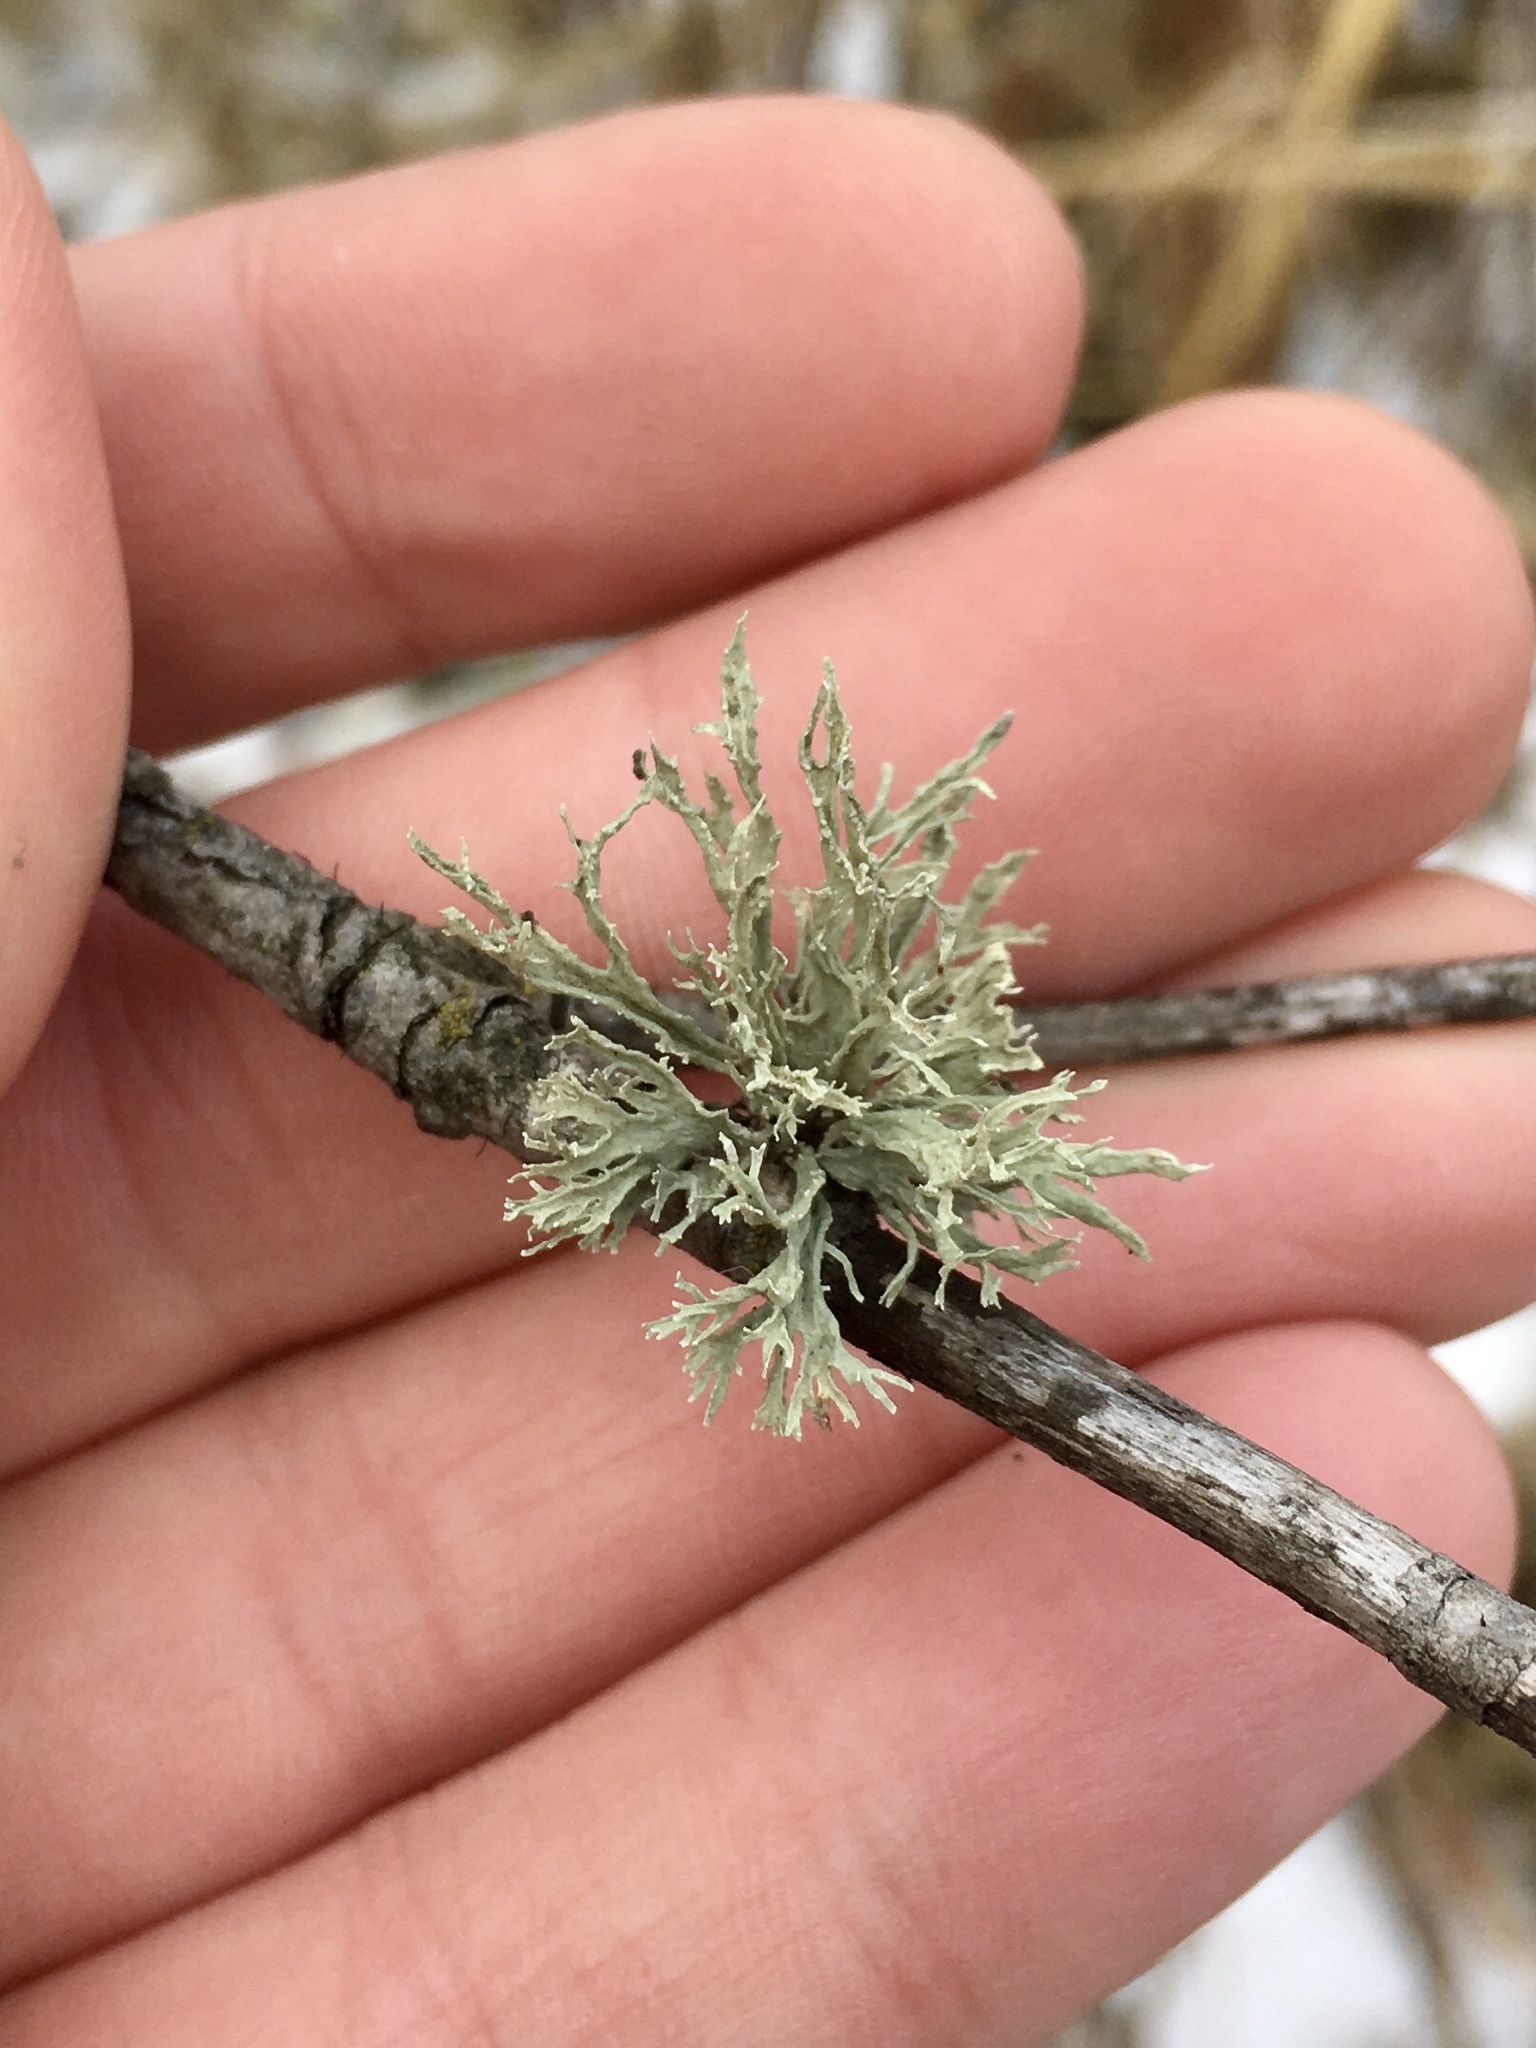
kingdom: Fungi
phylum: Ascomycota
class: Lecanoromycetes
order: Lecanorales
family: Ramalinaceae
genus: Ramalina
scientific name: Ramalina americana
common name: Sinewed bush lichen
